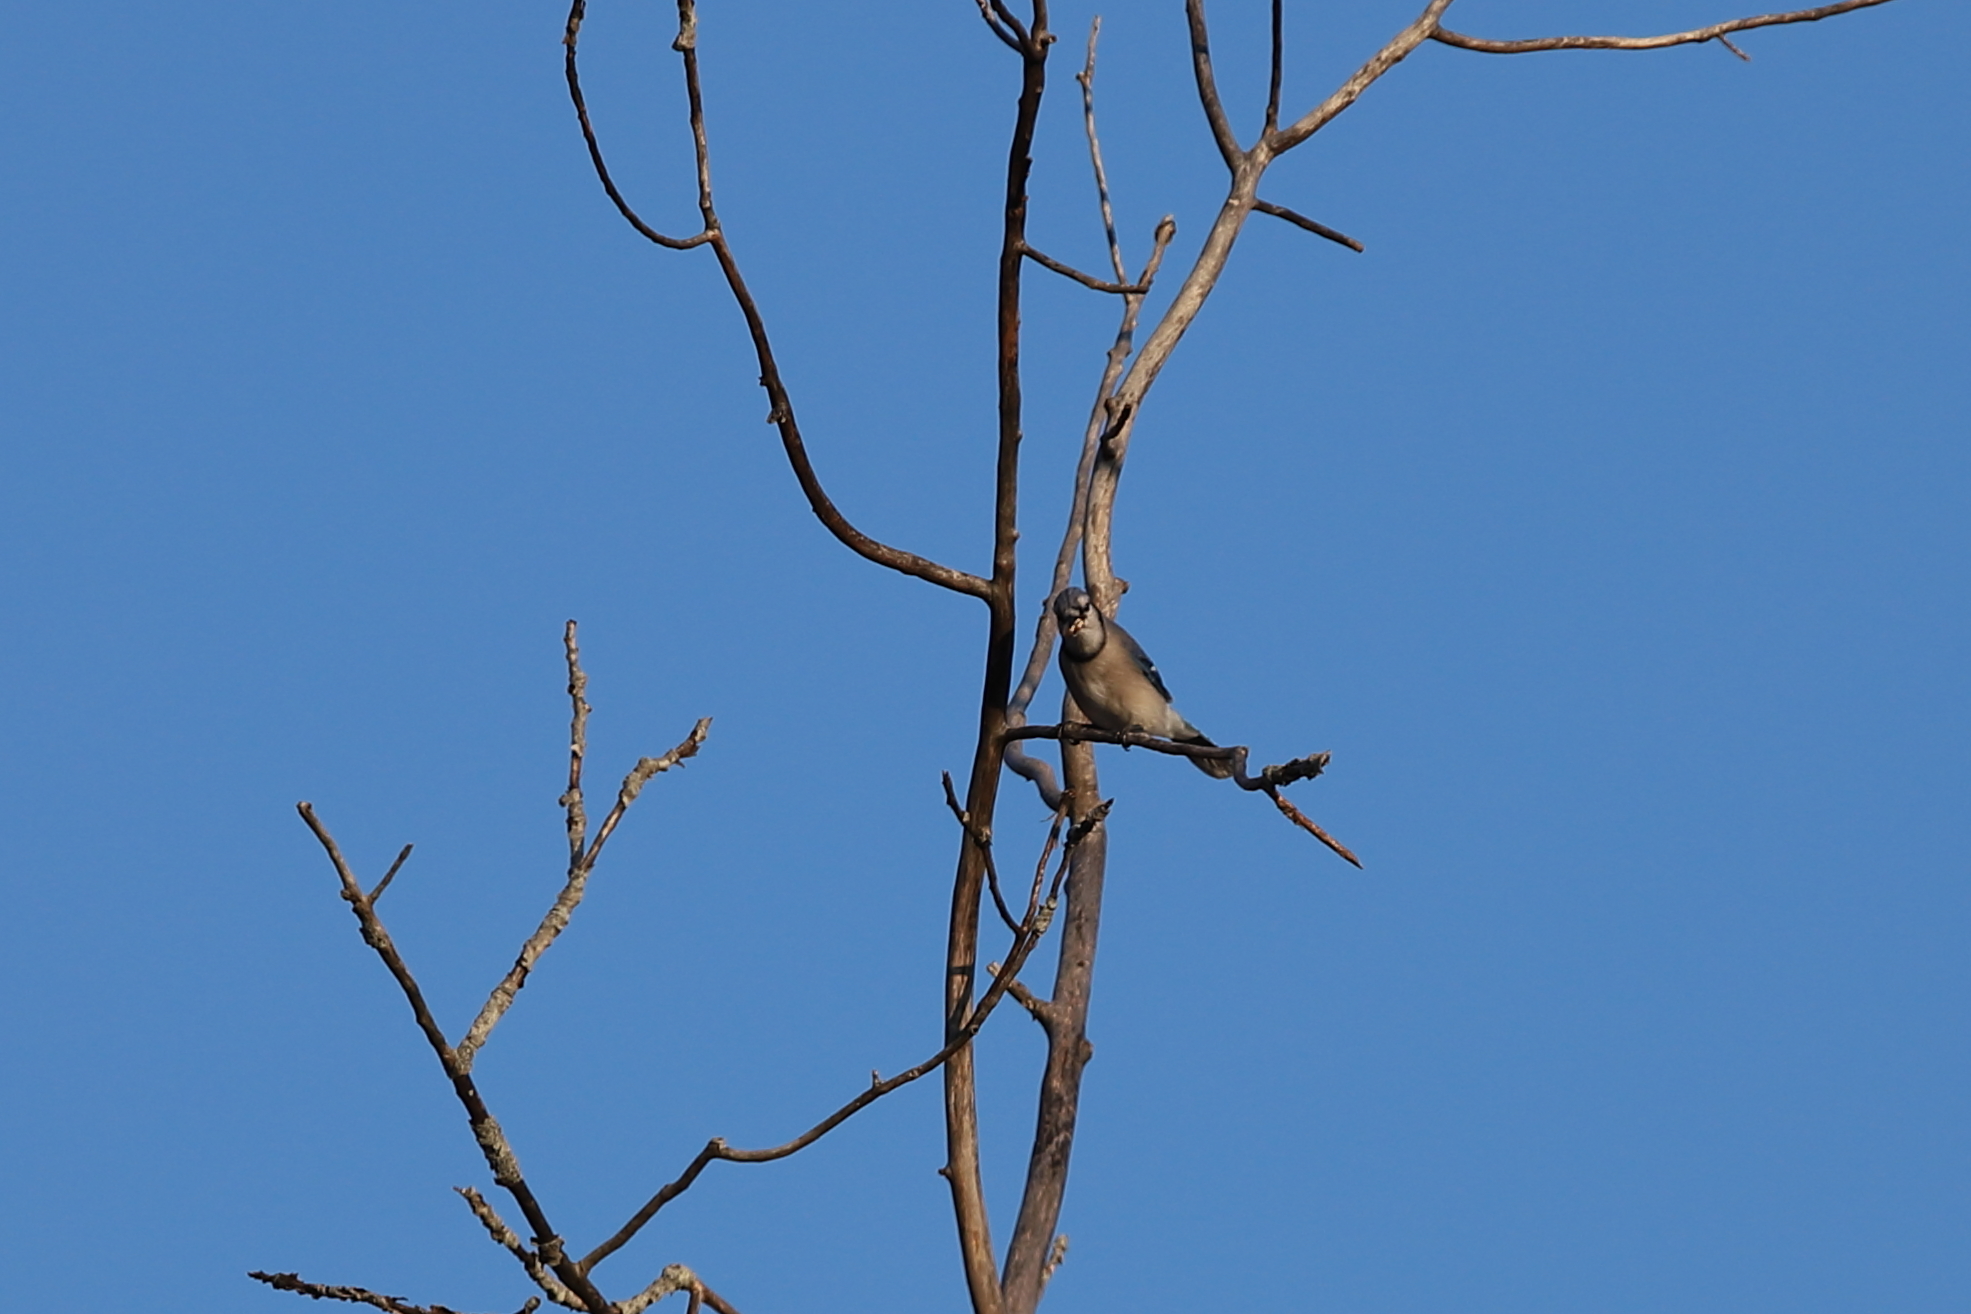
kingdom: Animalia
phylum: Chordata
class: Aves
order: Passeriformes
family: Corvidae
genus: Cyanocitta
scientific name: Cyanocitta cristata
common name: Blue jay
